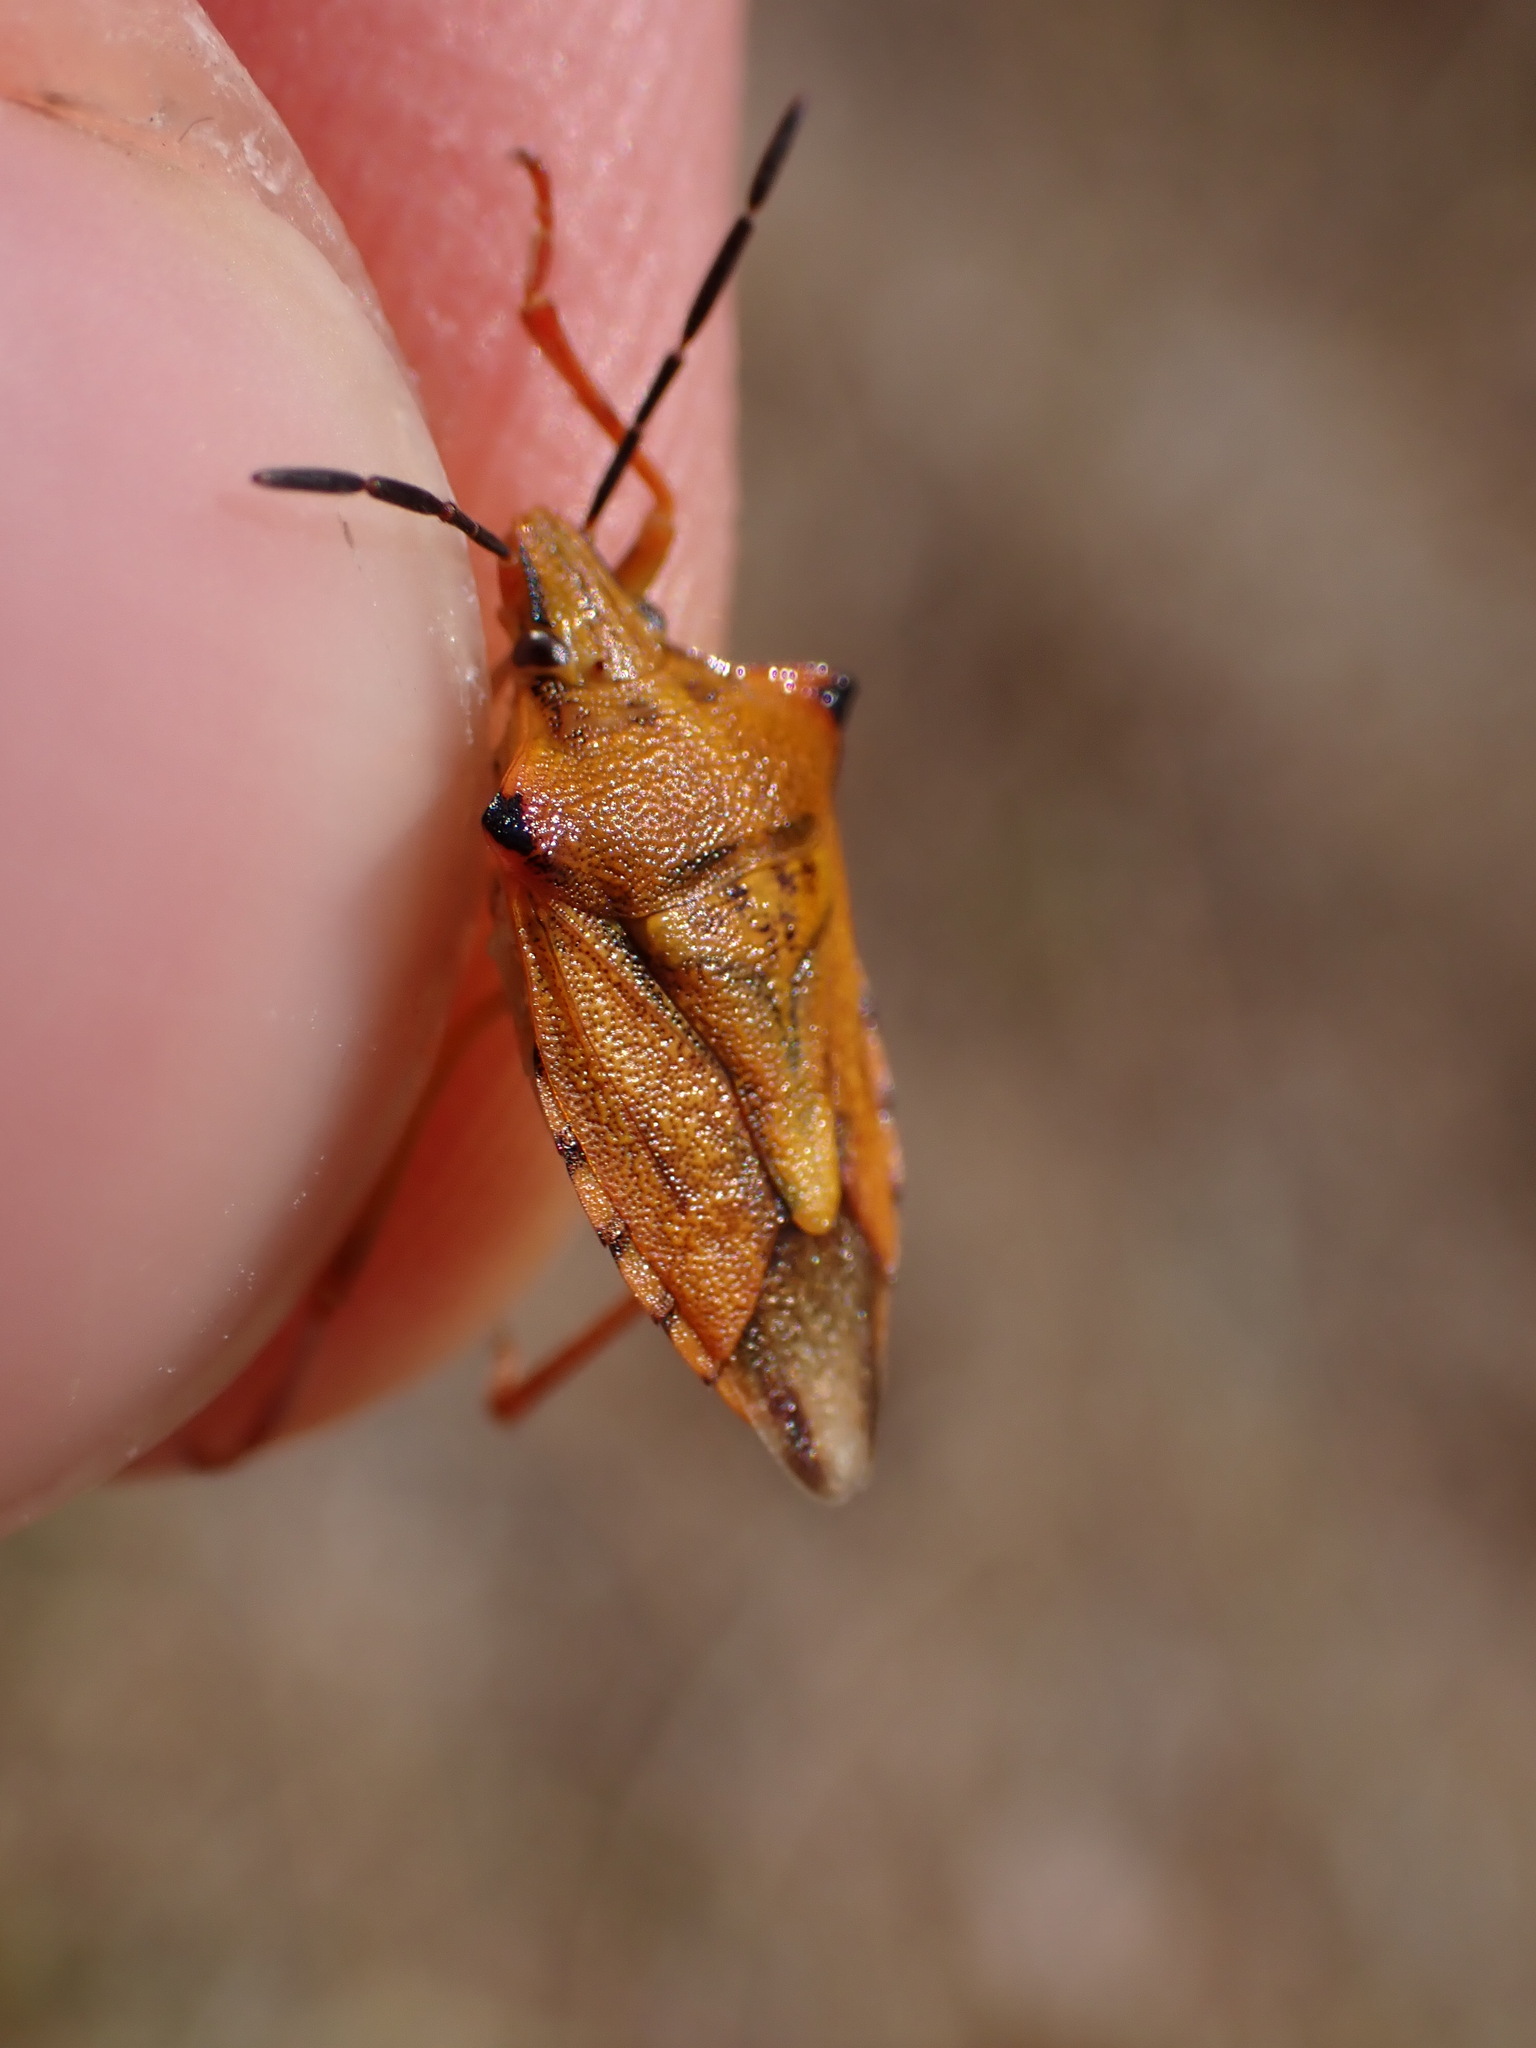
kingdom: Animalia
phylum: Arthropoda
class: Insecta
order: Hemiptera
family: Pentatomidae
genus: Carpocoris
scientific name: Carpocoris mediterraneus
